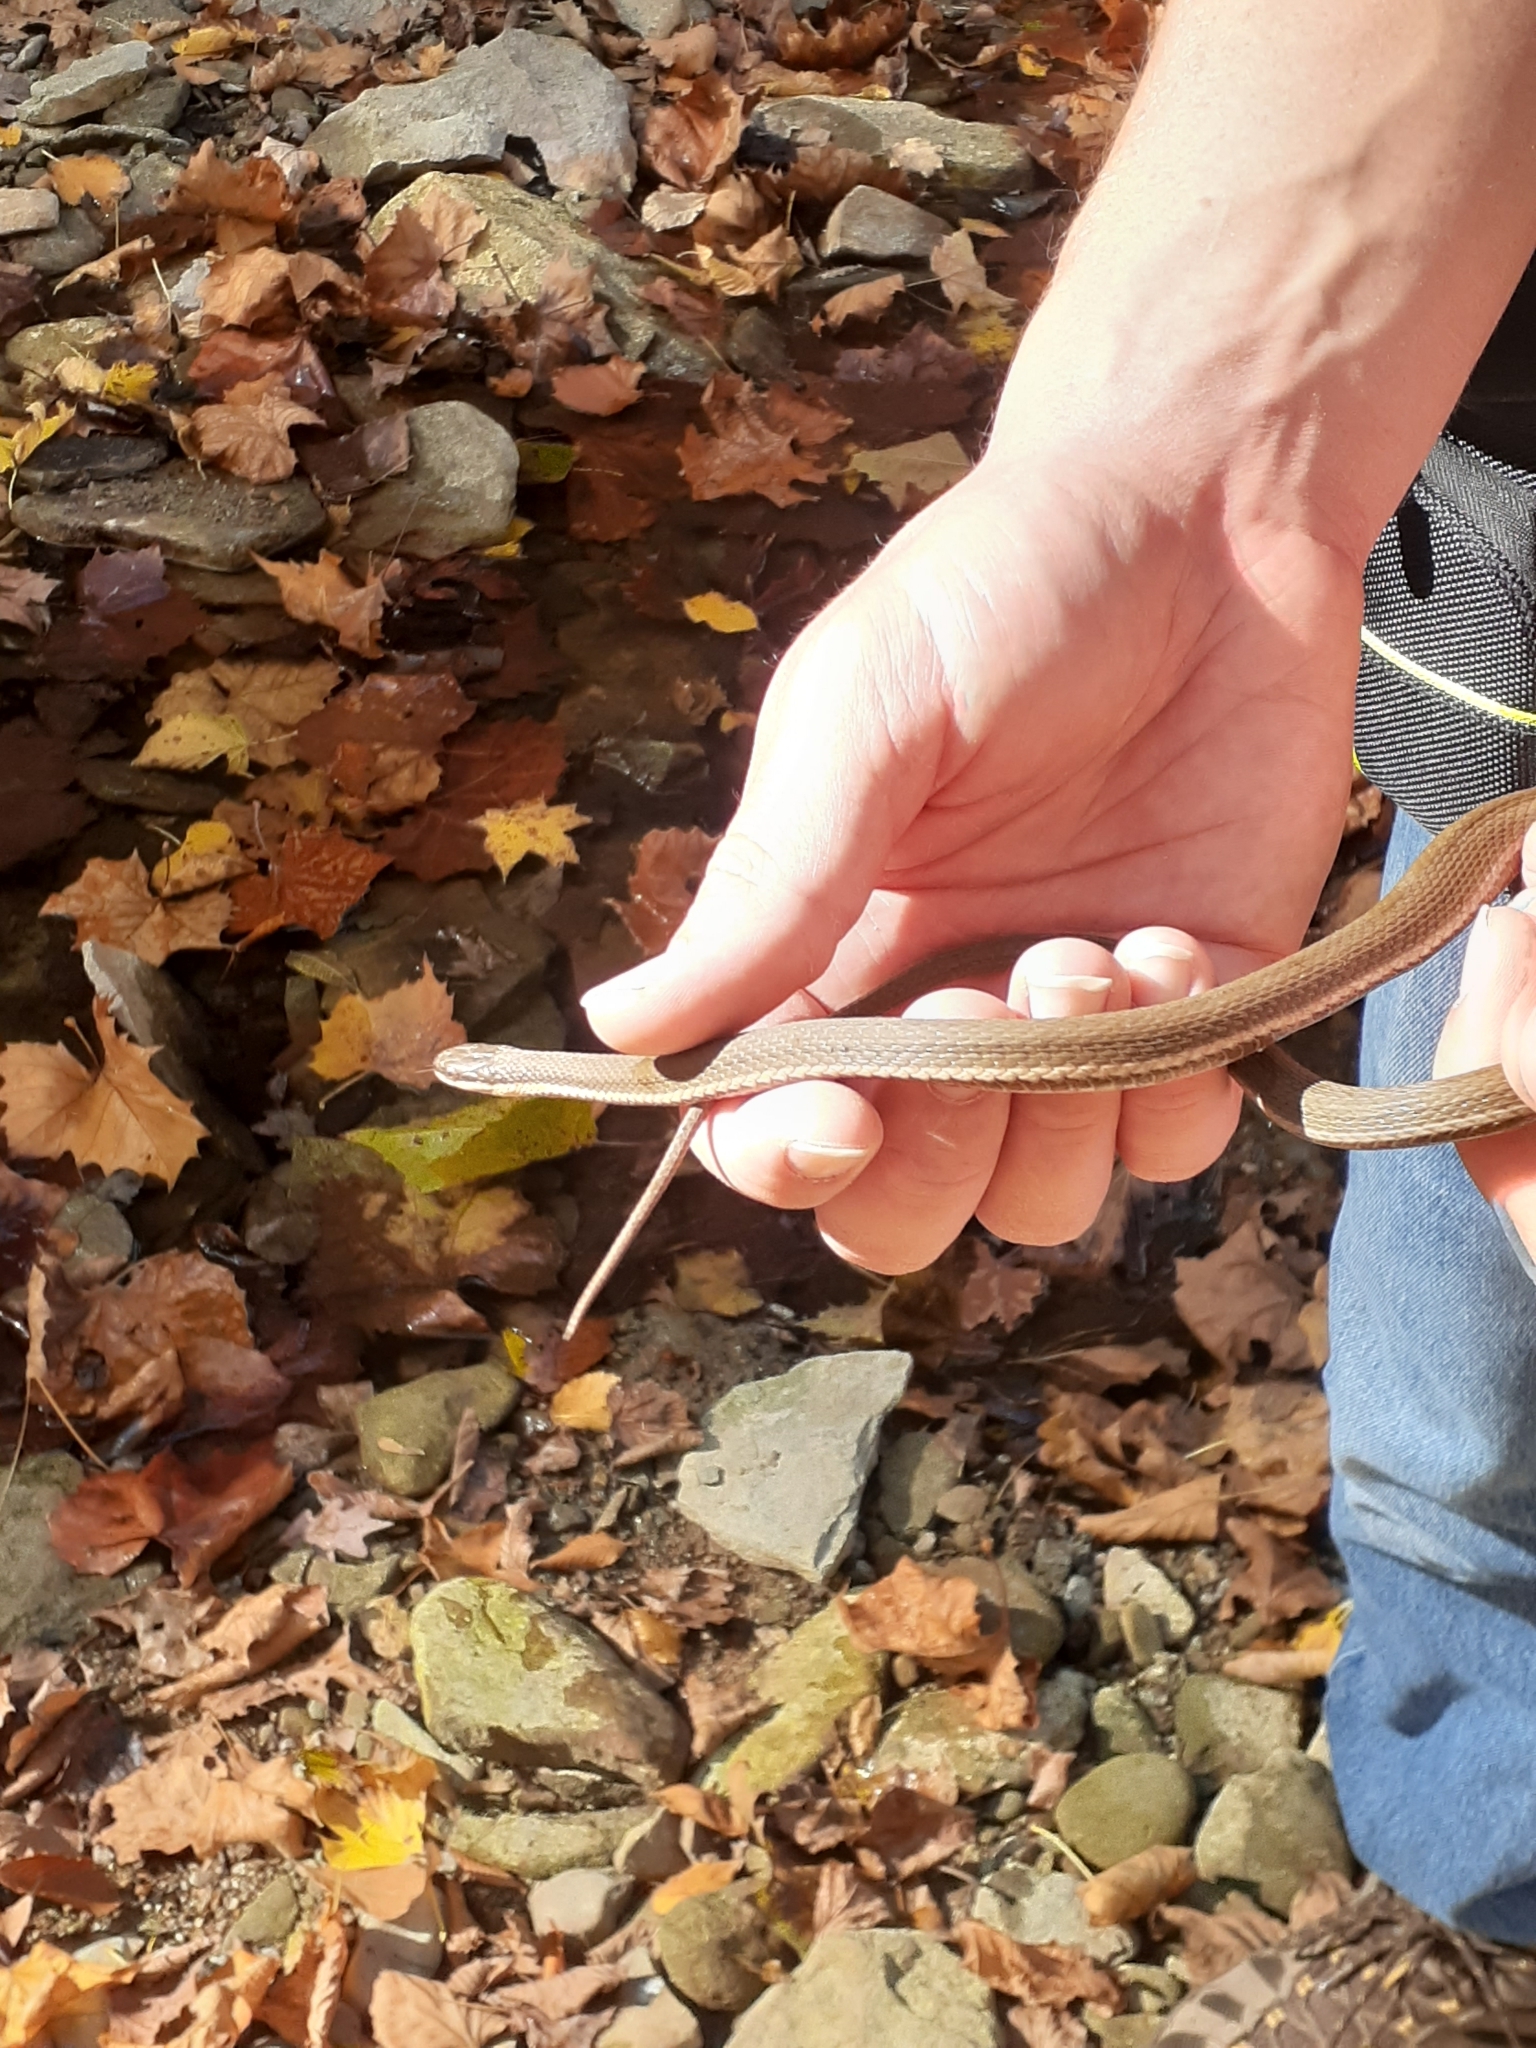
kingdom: Animalia
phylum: Chordata
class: Squamata
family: Colubridae
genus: Regina
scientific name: Regina septemvittata
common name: Queen snake
